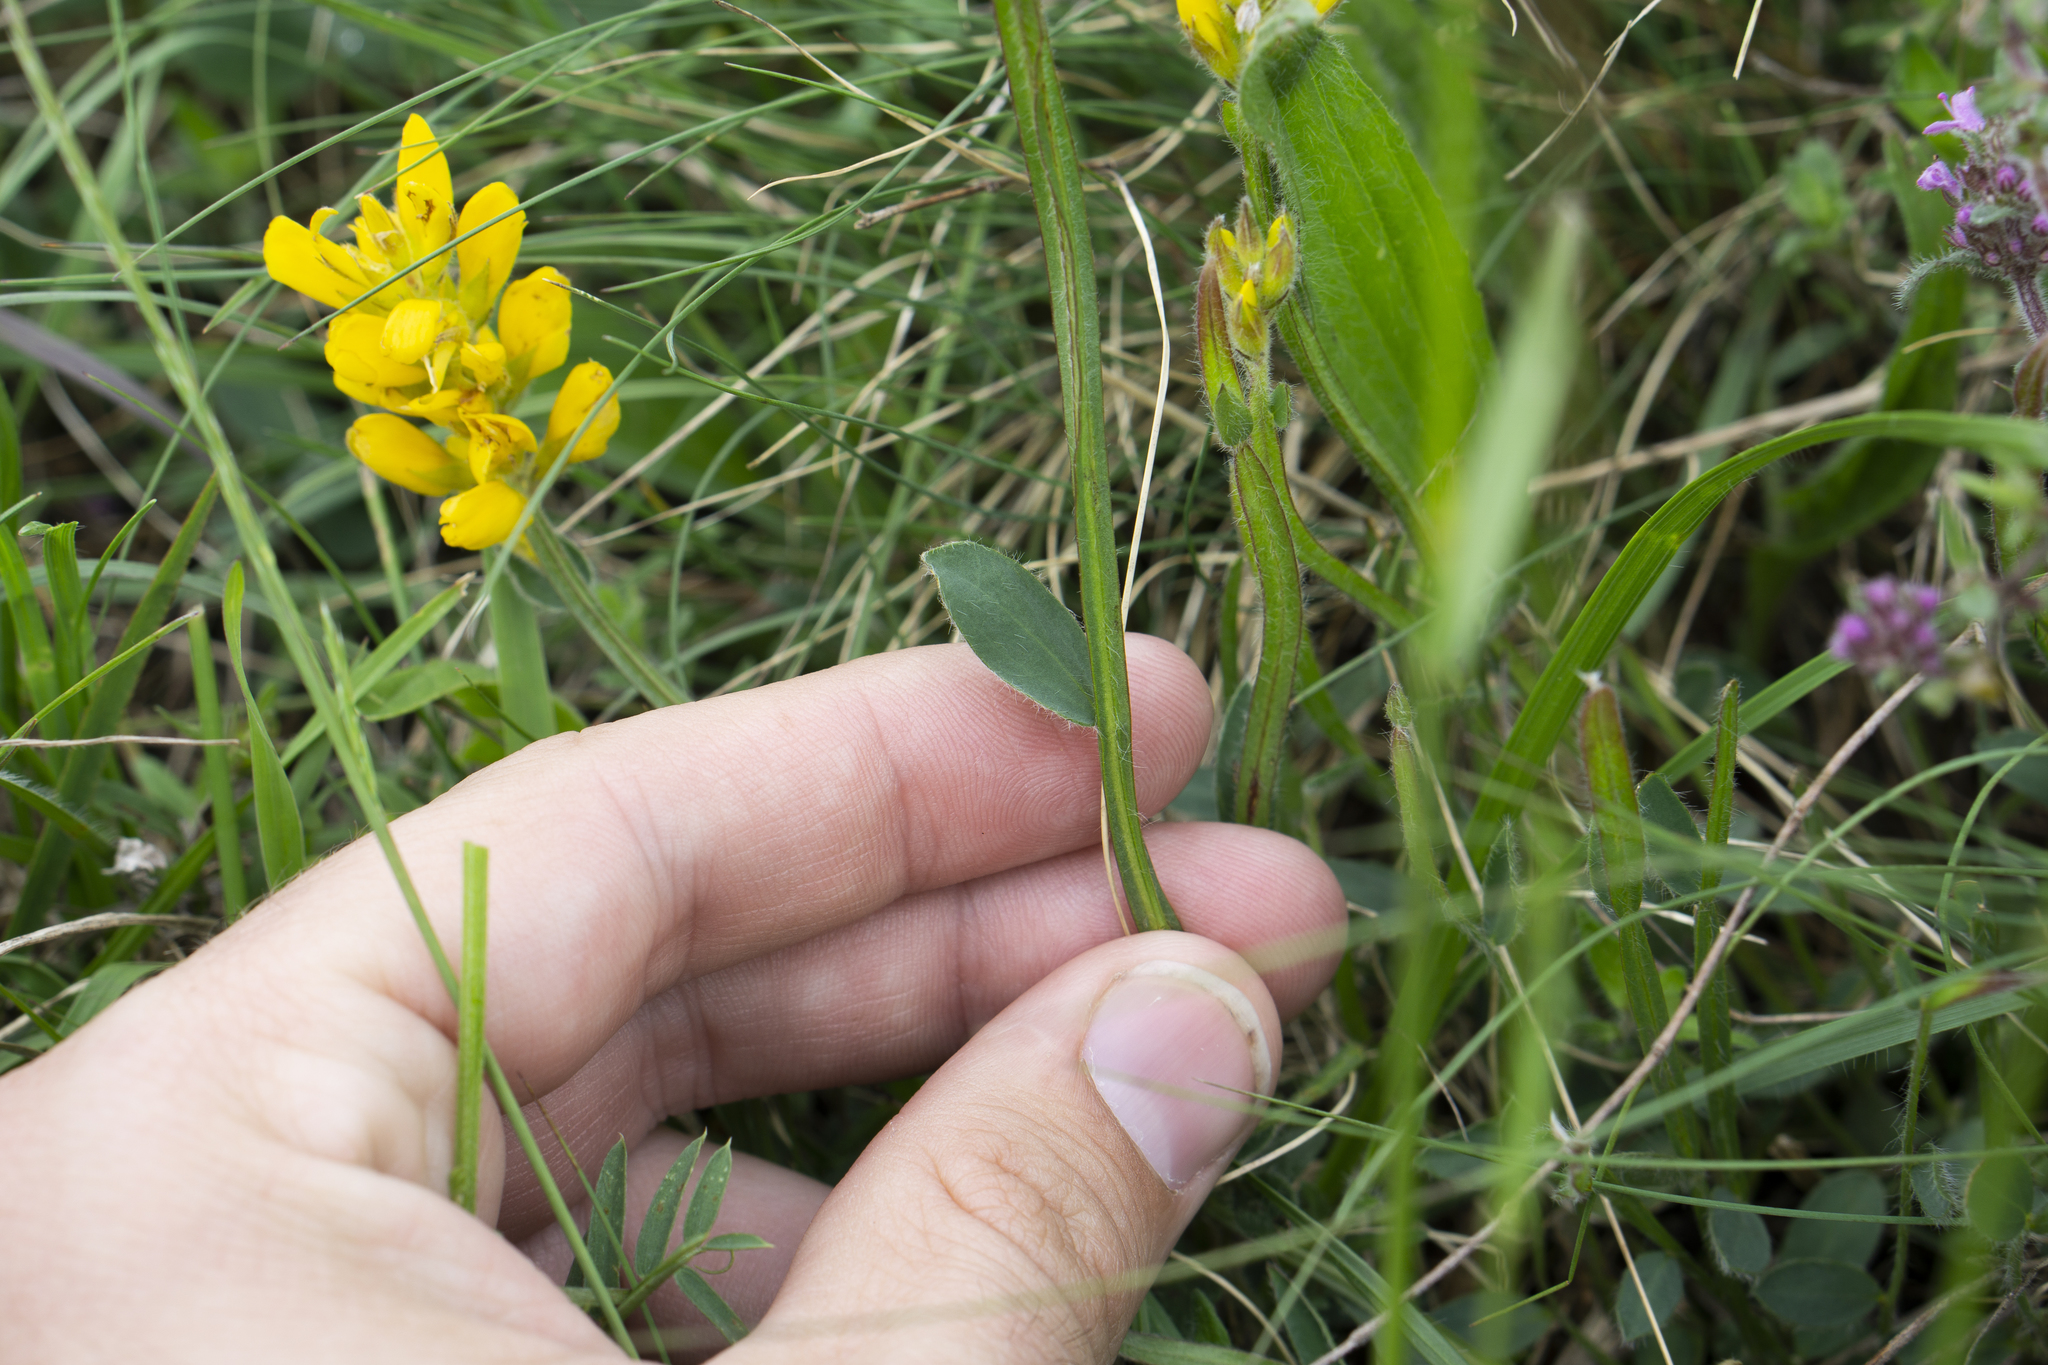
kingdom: Plantae
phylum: Tracheophyta
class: Magnoliopsida
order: Fabales
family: Fabaceae
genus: Genista
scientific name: Genista sagittalis
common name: Winged greenweed
